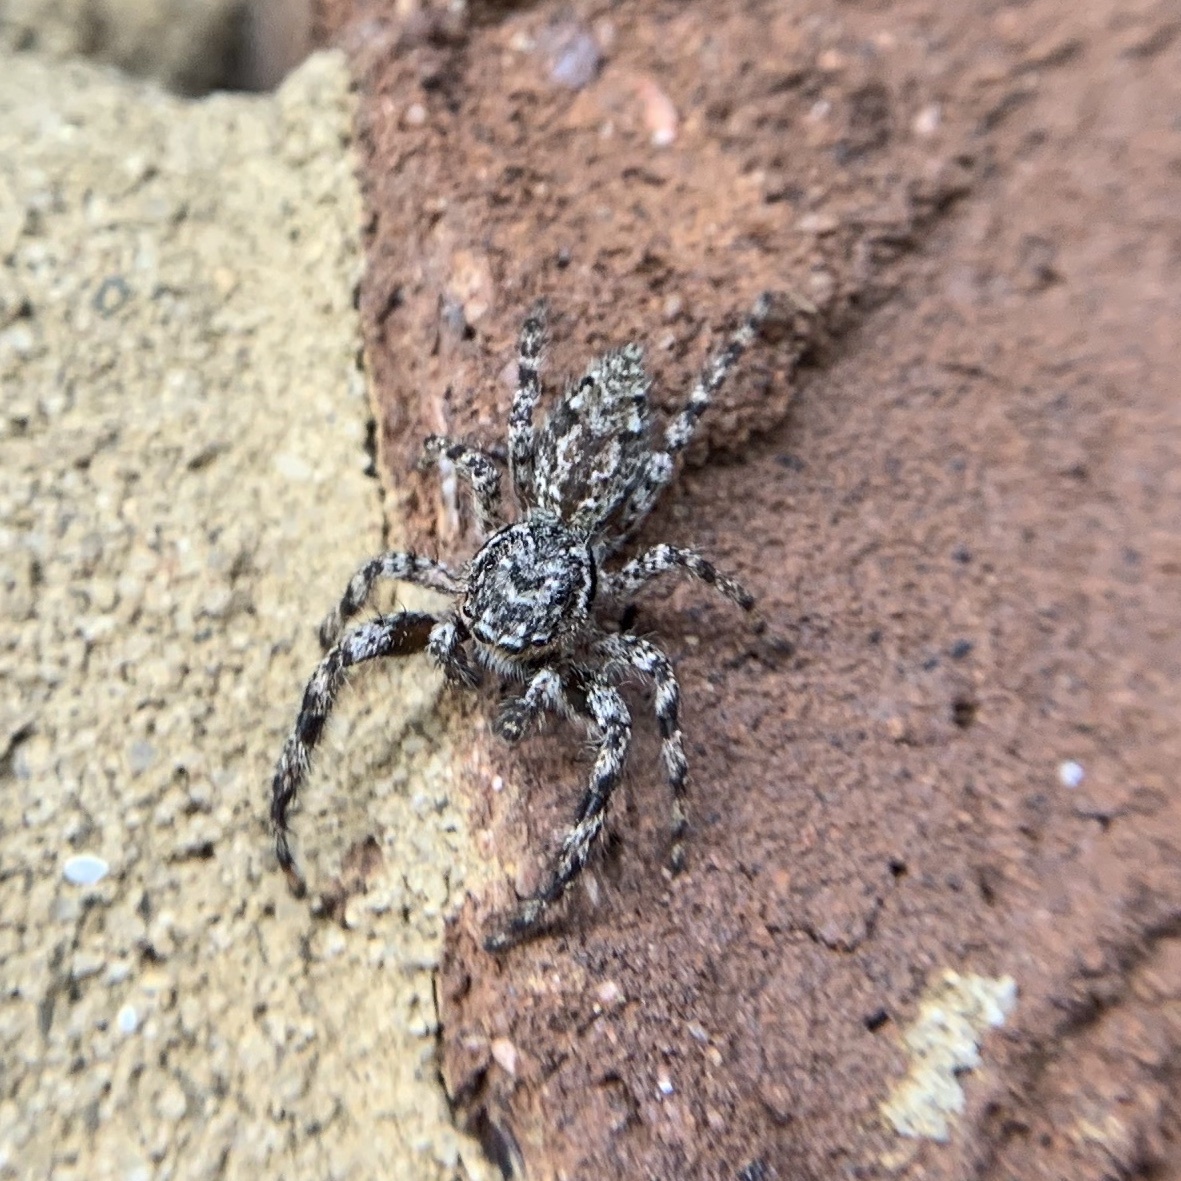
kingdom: Animalia
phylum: Arthropoda
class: Arachnida
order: Araneae
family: Salticidae
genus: Platycryptus
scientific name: Platycryptus undatus
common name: Tan jumping spider
